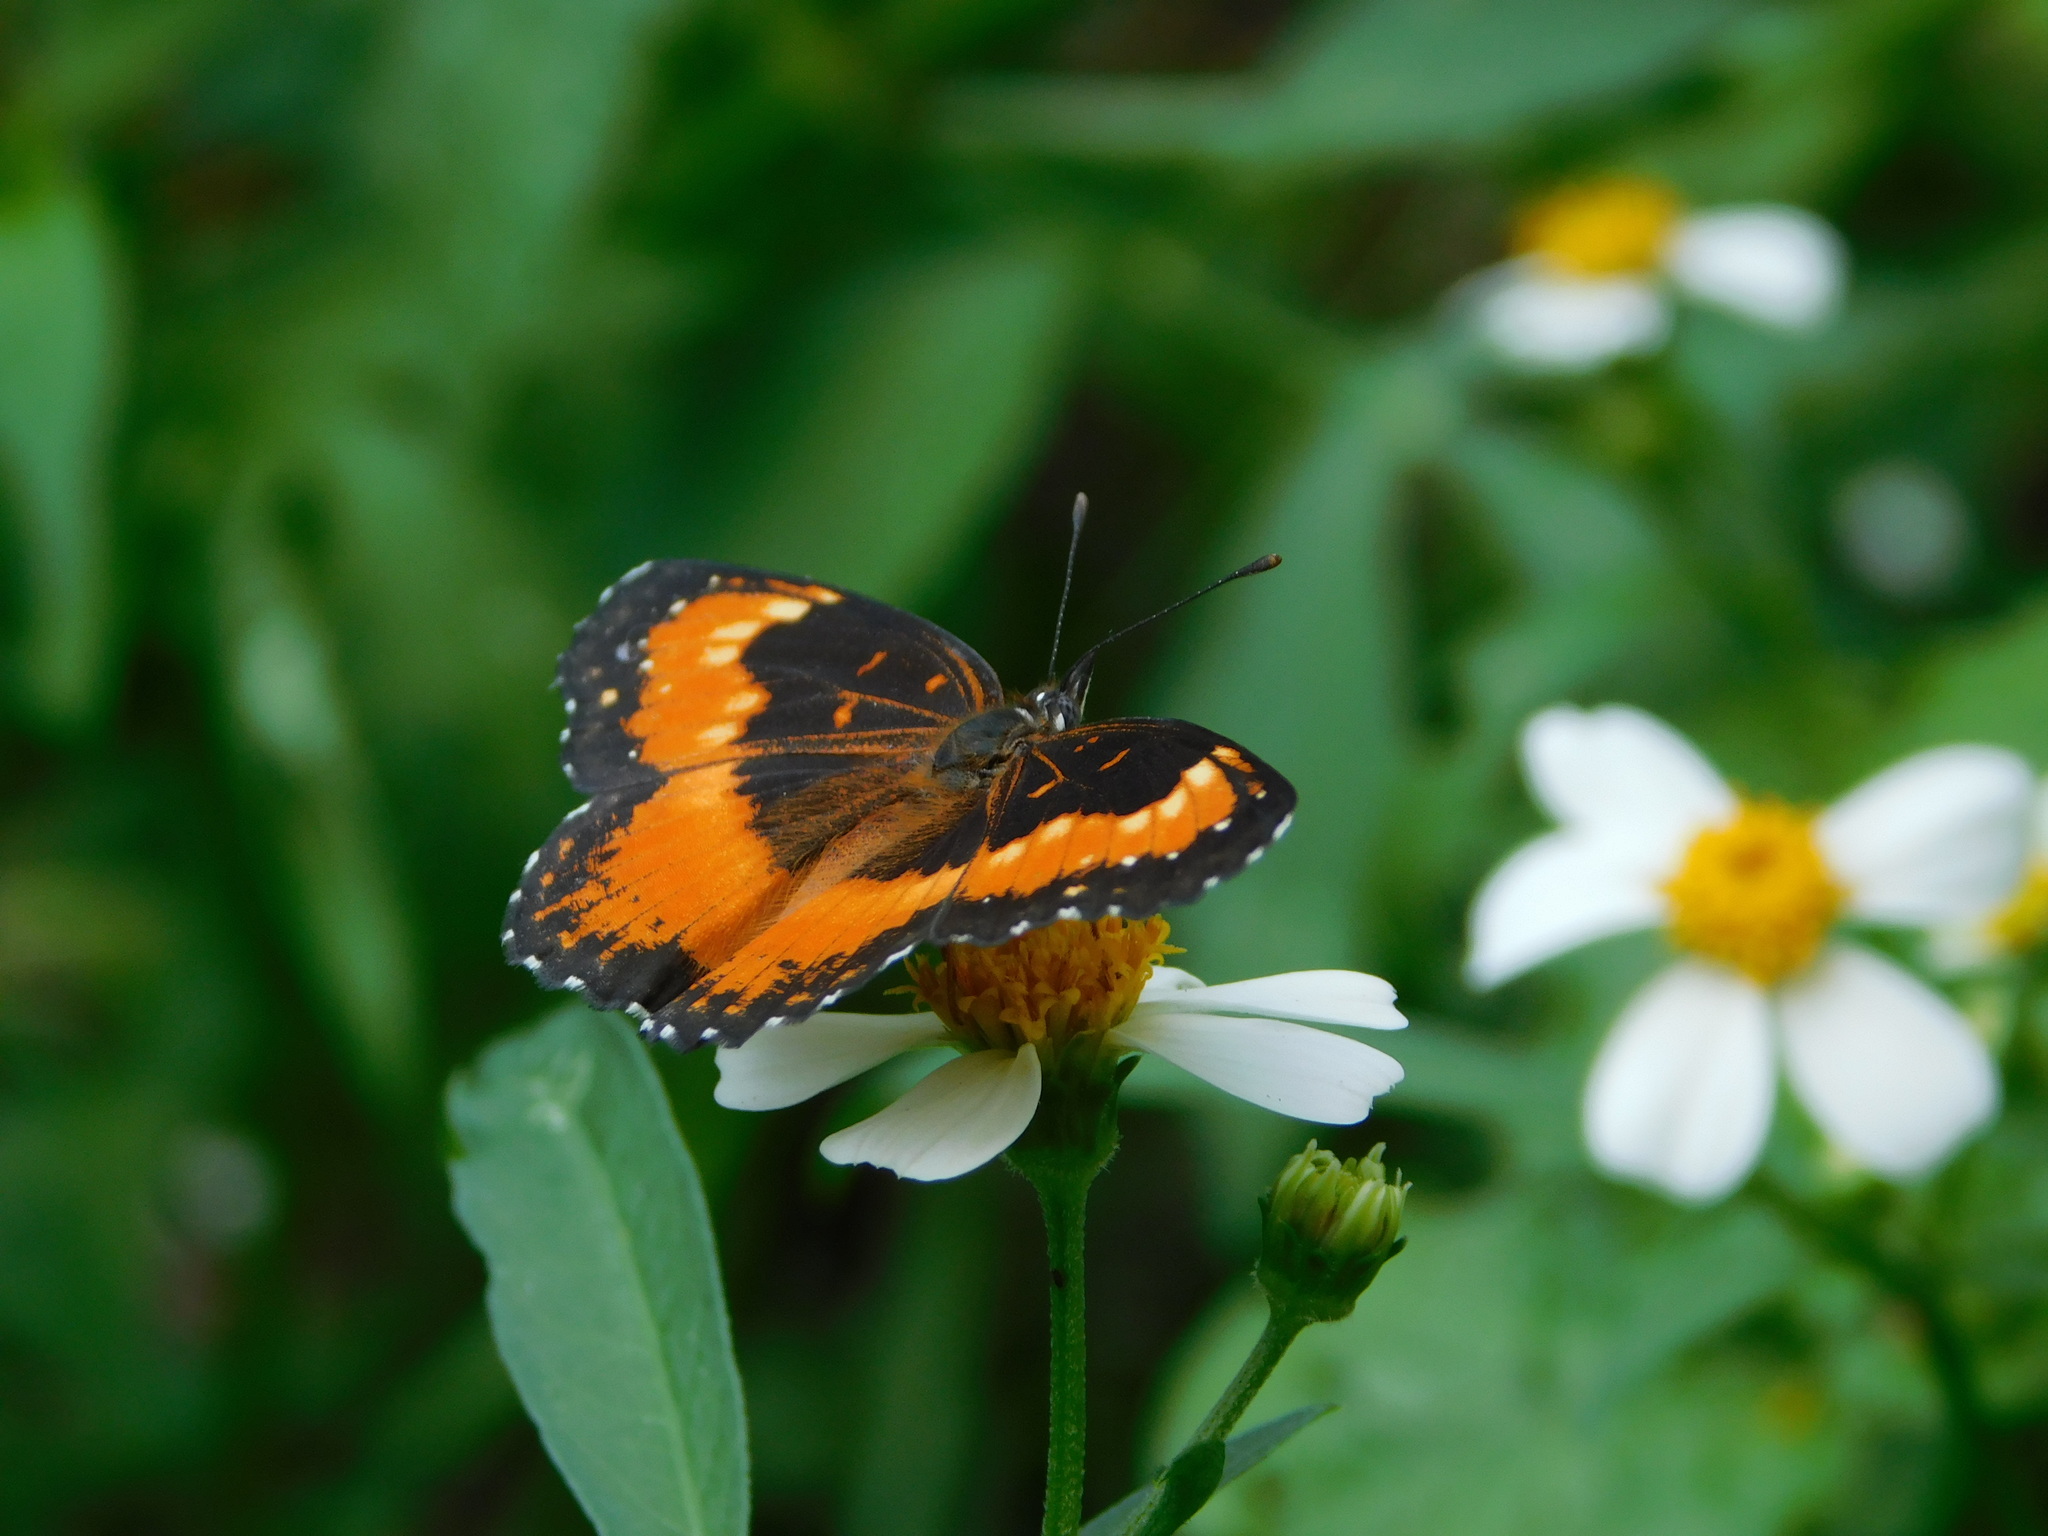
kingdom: Animalia
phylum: Arthropoda
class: Insecta
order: Lepidoptera
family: Nymphalidae
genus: Chlosyne
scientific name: Chlosyne lacinia
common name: Bordered patch
